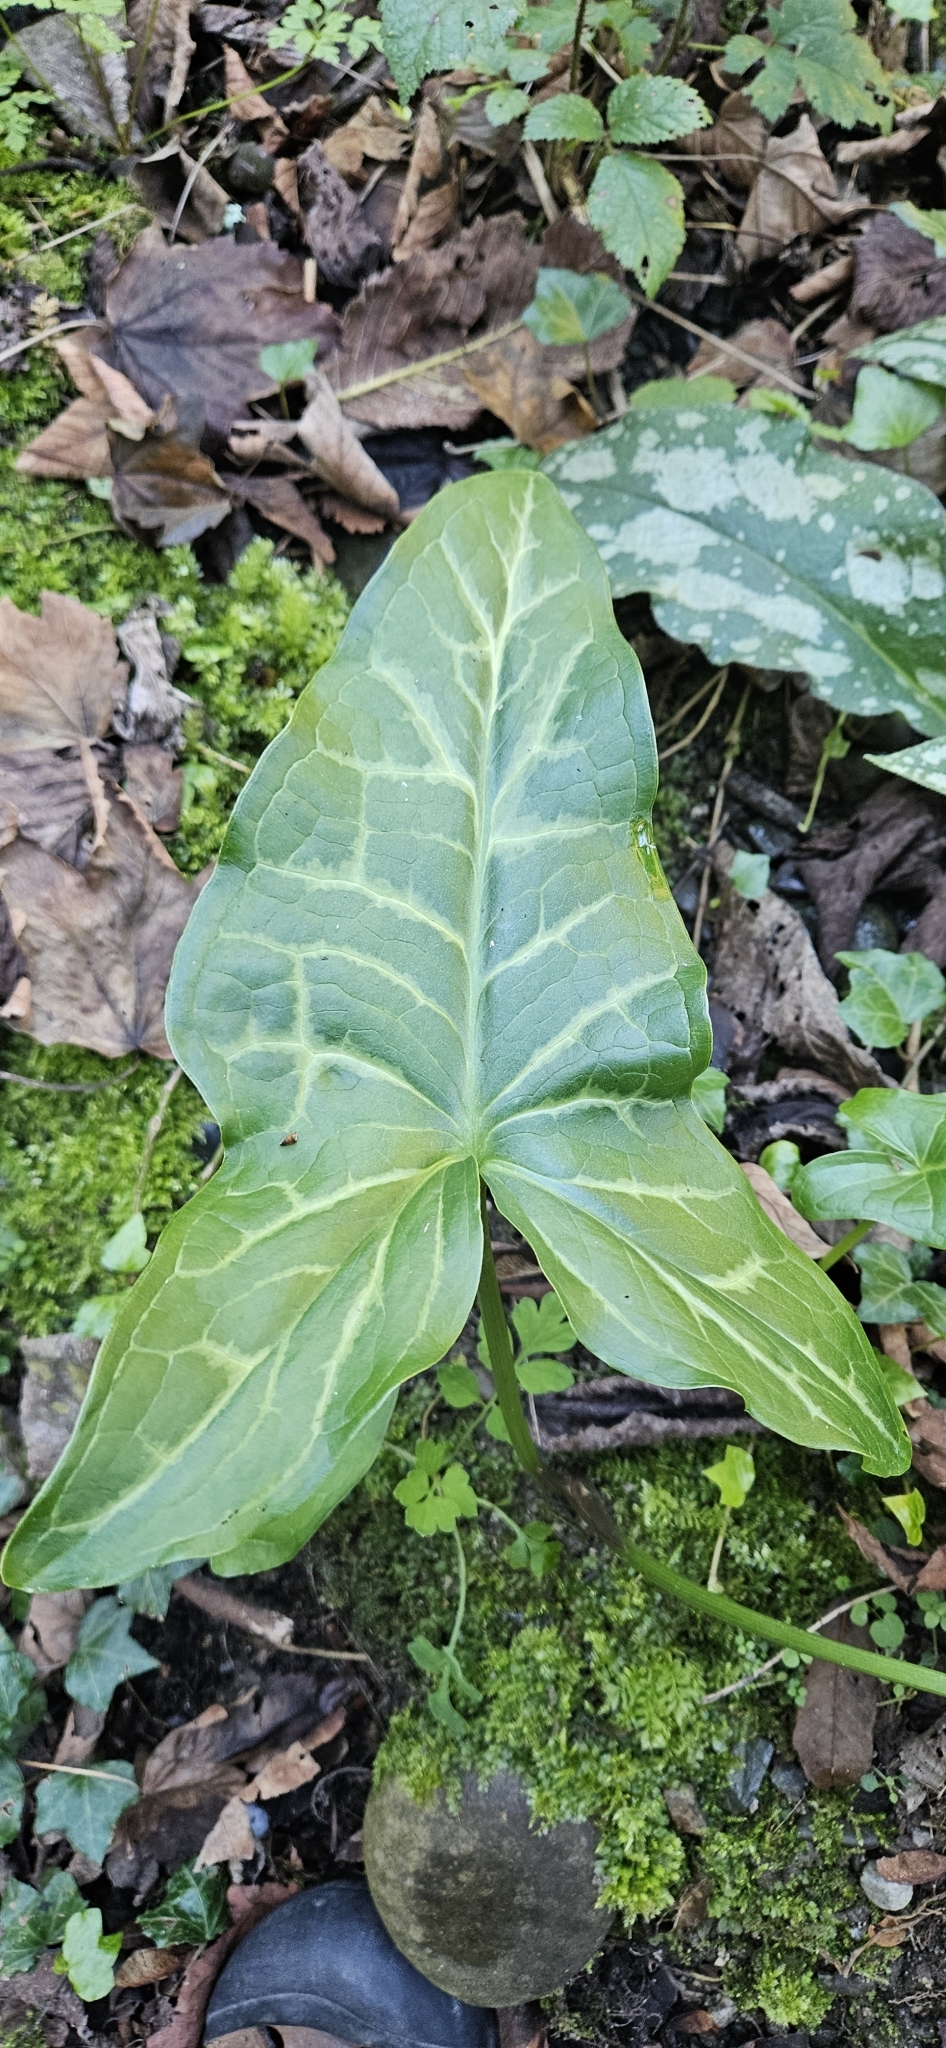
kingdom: Plantae
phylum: Tracheophyta
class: Liliopsida
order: Alismatales
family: Araceae
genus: Arum
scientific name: Arum italicum
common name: Italian lords-and-ladies
